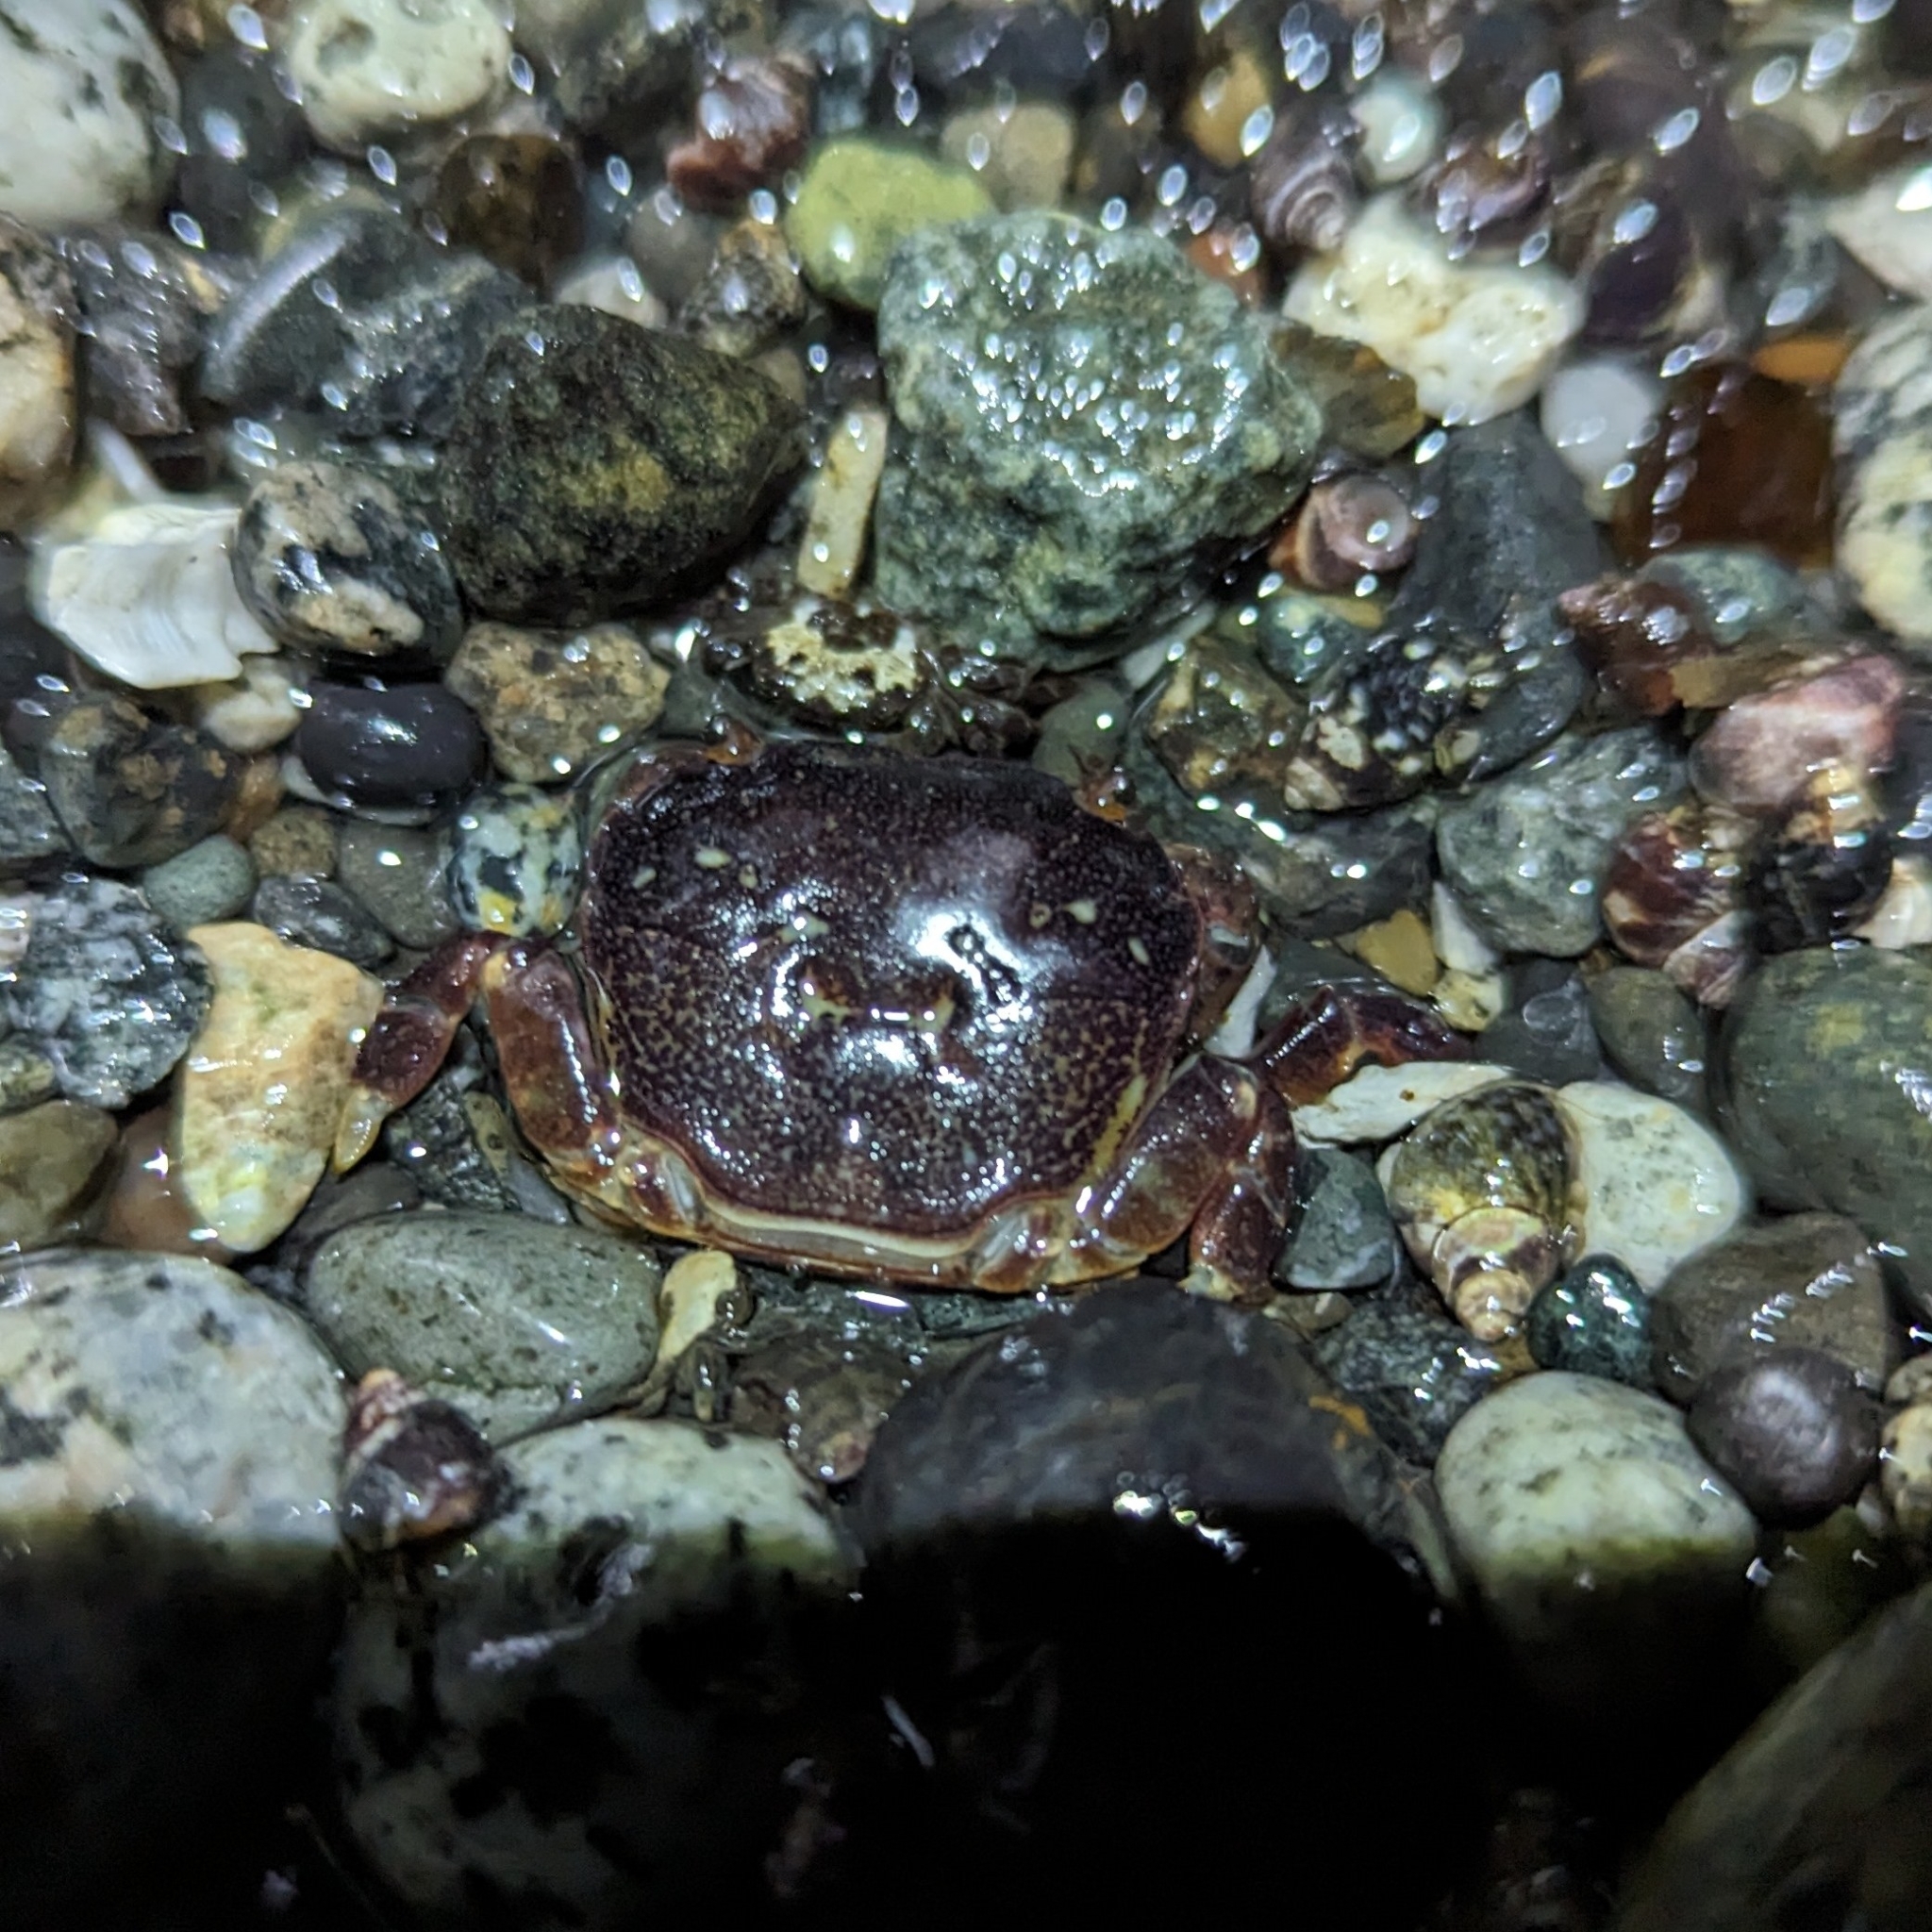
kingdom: Animalia
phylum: Arthropoda
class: Malacostraca
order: Decapoda
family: Varunidae
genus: Hemigrapsus
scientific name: Hemigrapsus nudus
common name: Purple shore crab
